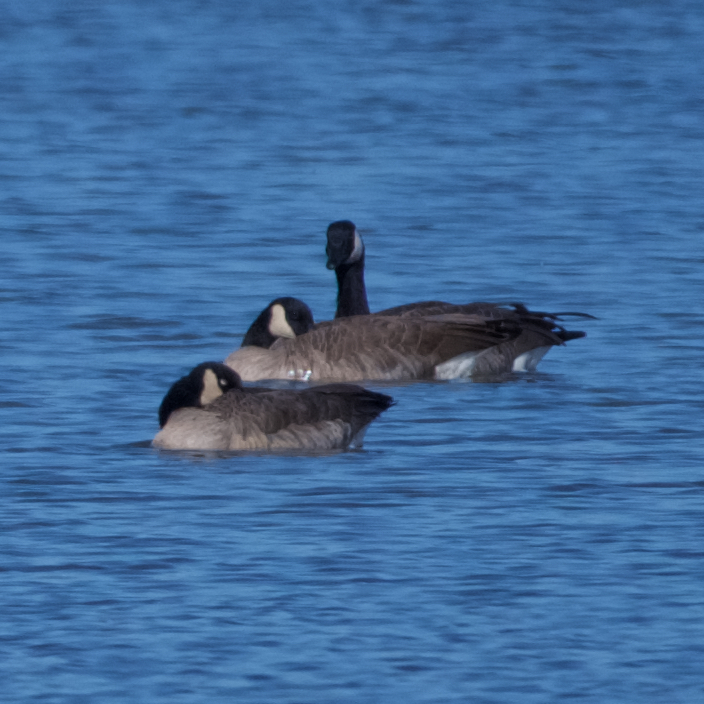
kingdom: Animalia
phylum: Chordata
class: Aves
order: Anseriformes
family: Anatidae
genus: Branta
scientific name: Branta canadensis
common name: Canada goose
